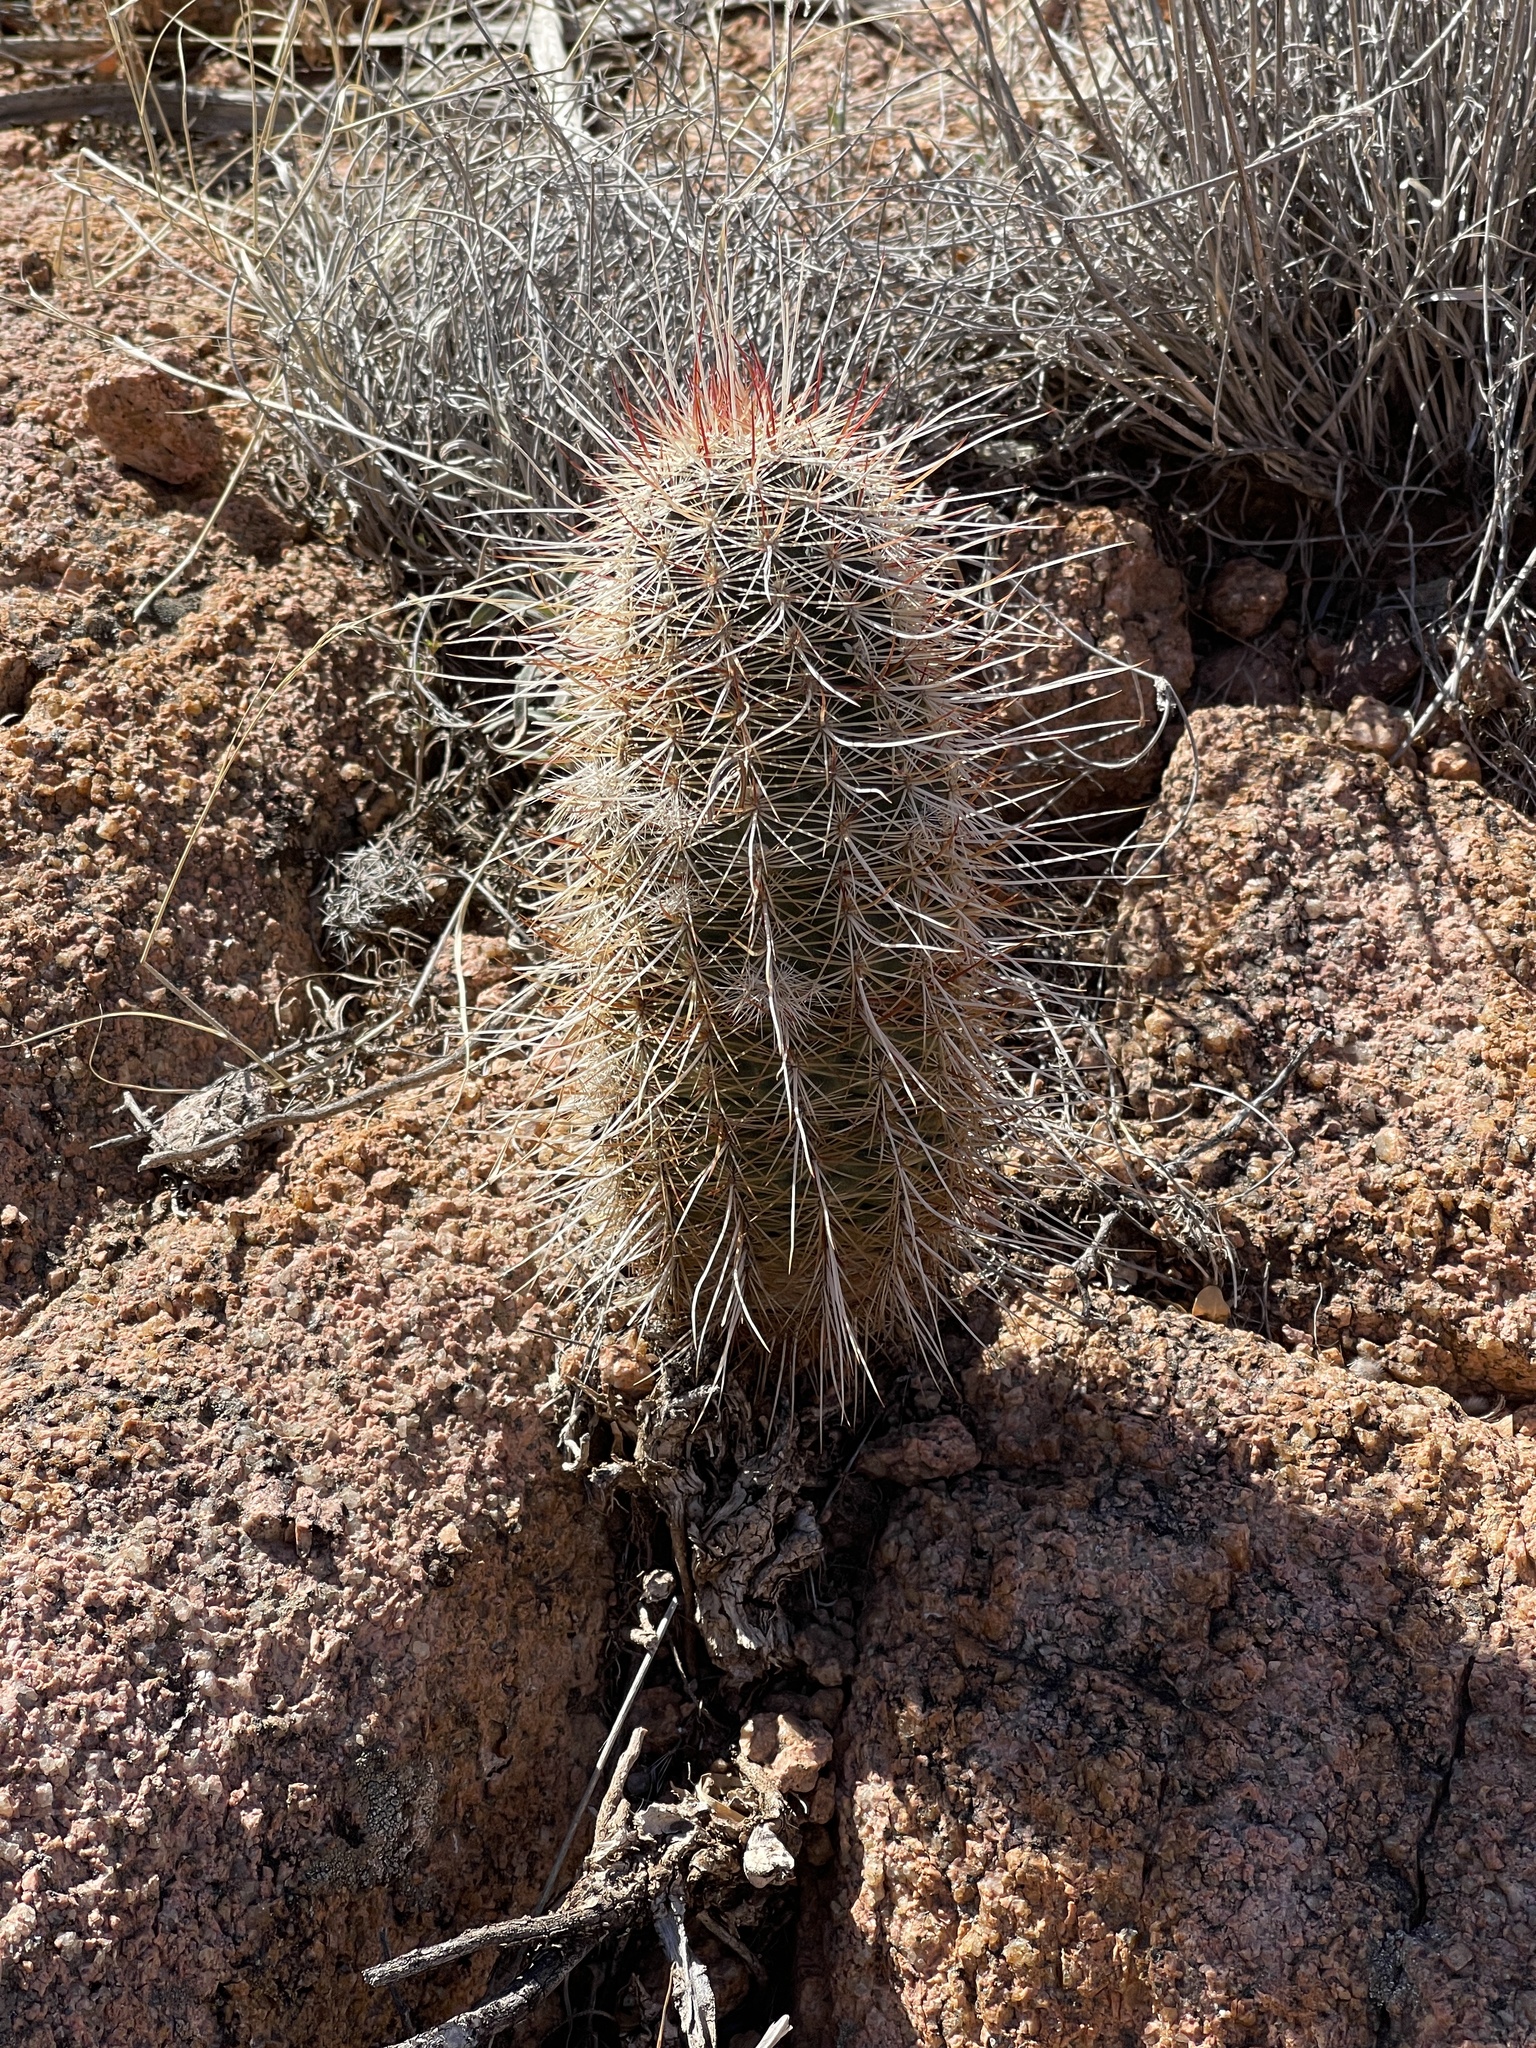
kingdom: Plantae
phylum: Tracheophyta
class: Magnoliopsida
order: Caryophyllales
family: Cactaceae
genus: Echinocereus
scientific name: Echinocereus viridiflorus
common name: Nylon hedgehog cactus
